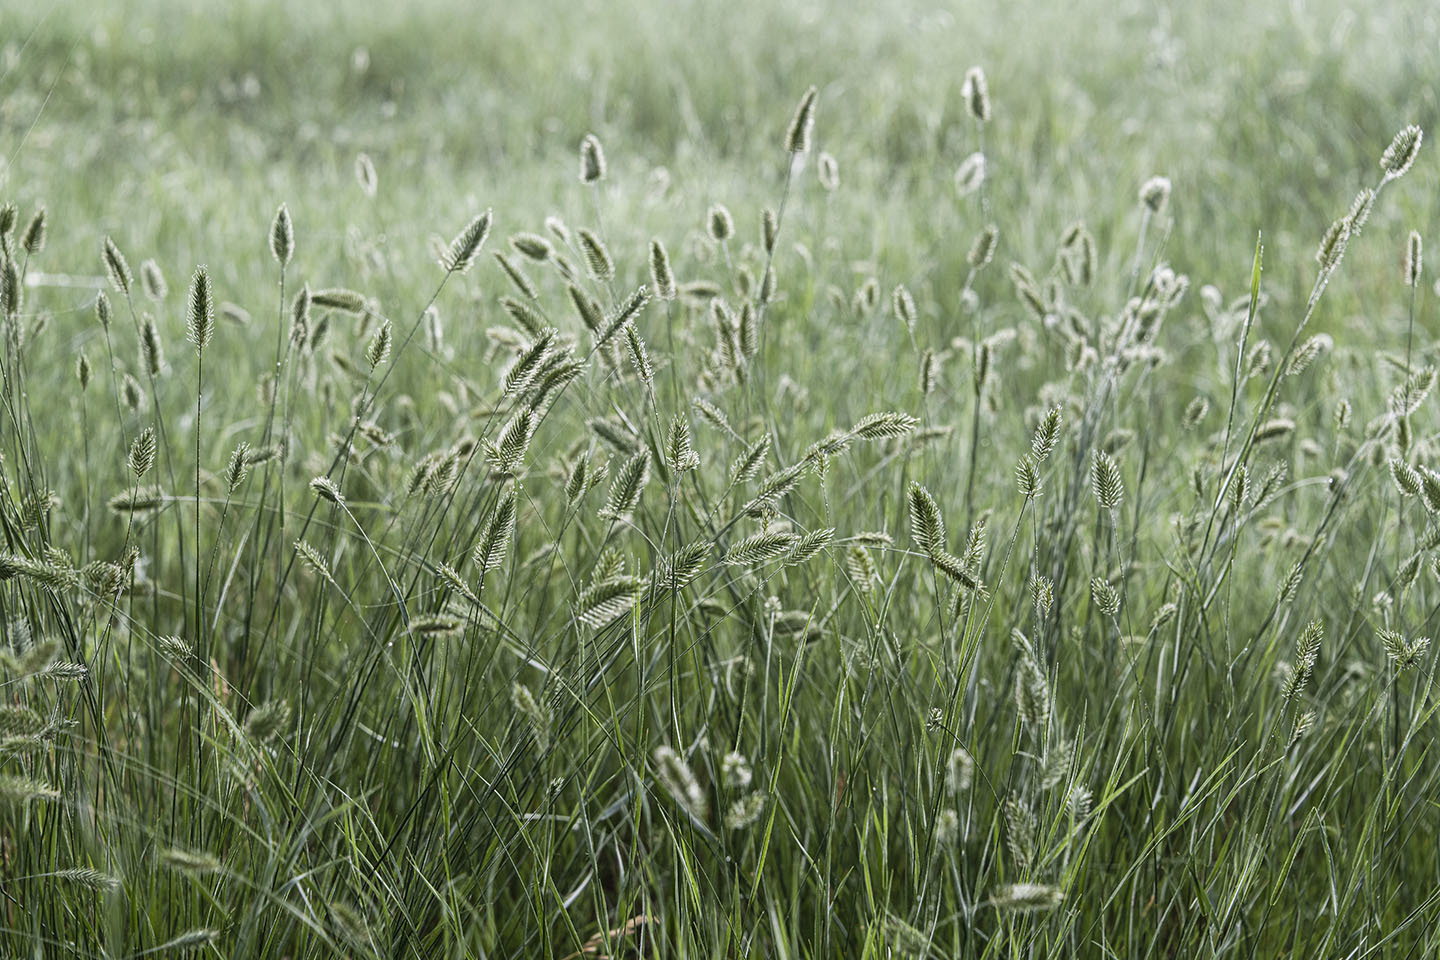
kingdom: Plantae
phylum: Tracheophyta
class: Liliopsida
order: Poales
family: Poaceae
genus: Agropyron
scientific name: Agropyron cristatum
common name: Crested wheatgrass
